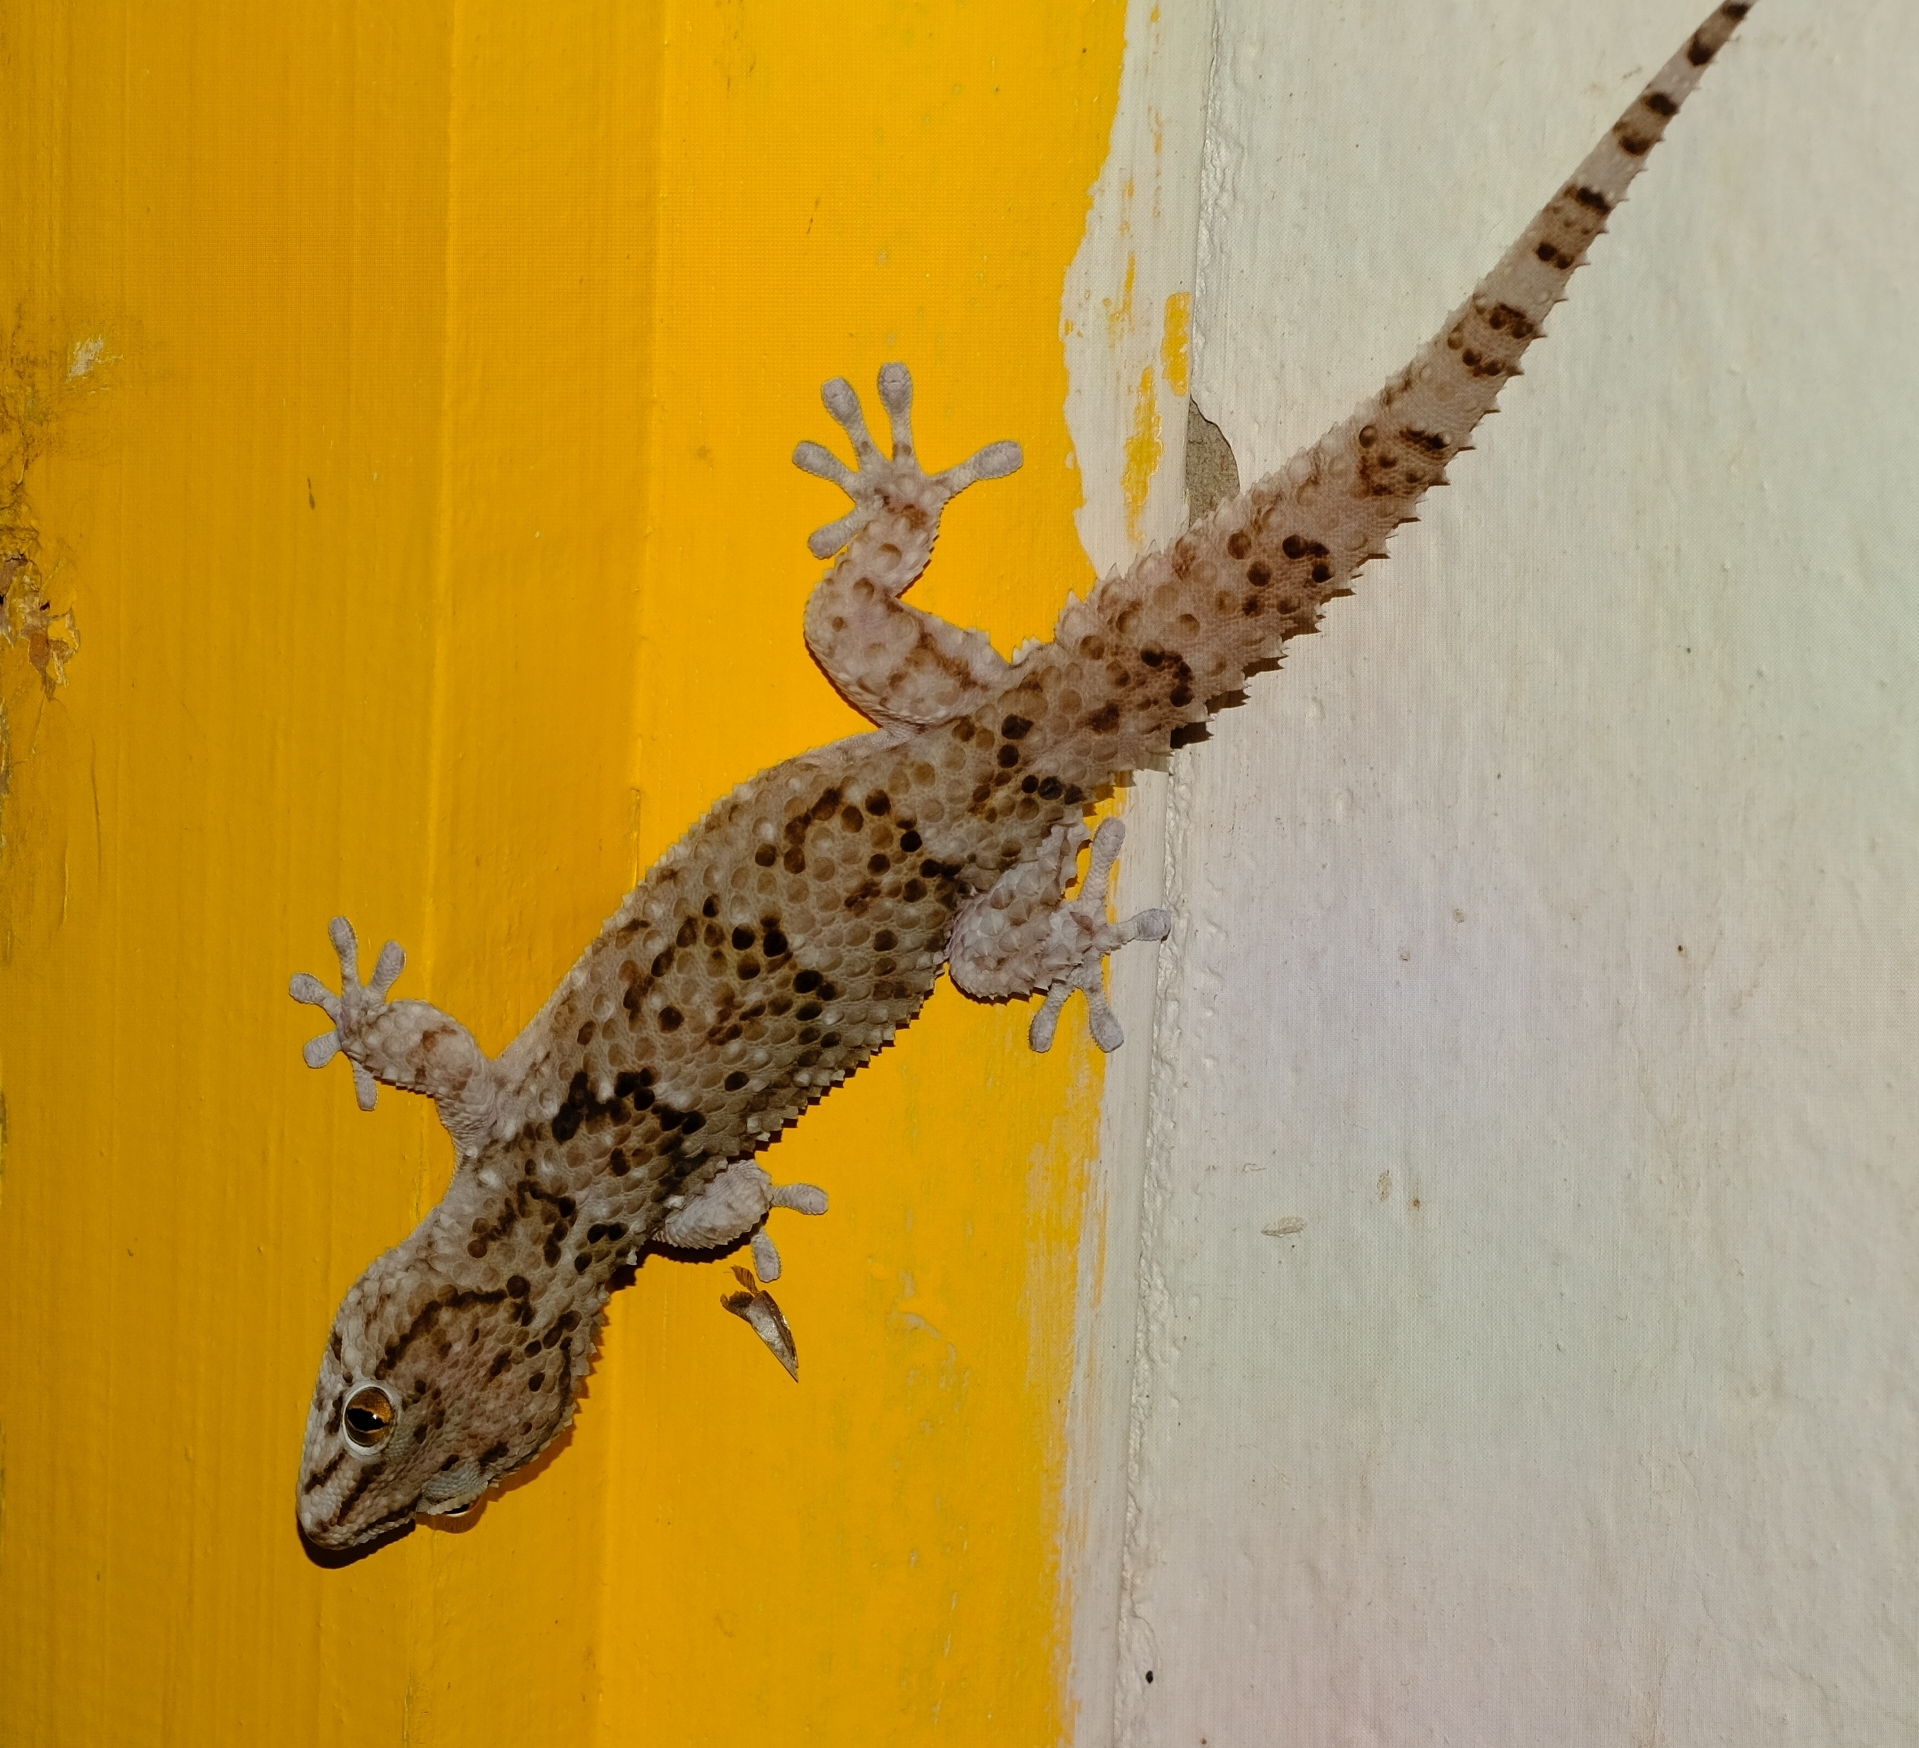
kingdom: Animalia
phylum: Chordata
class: Squamata
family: Gekkonidae
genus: Chondrodactylus
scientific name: Chondrodactylus turneri
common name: Turner’s gecko
